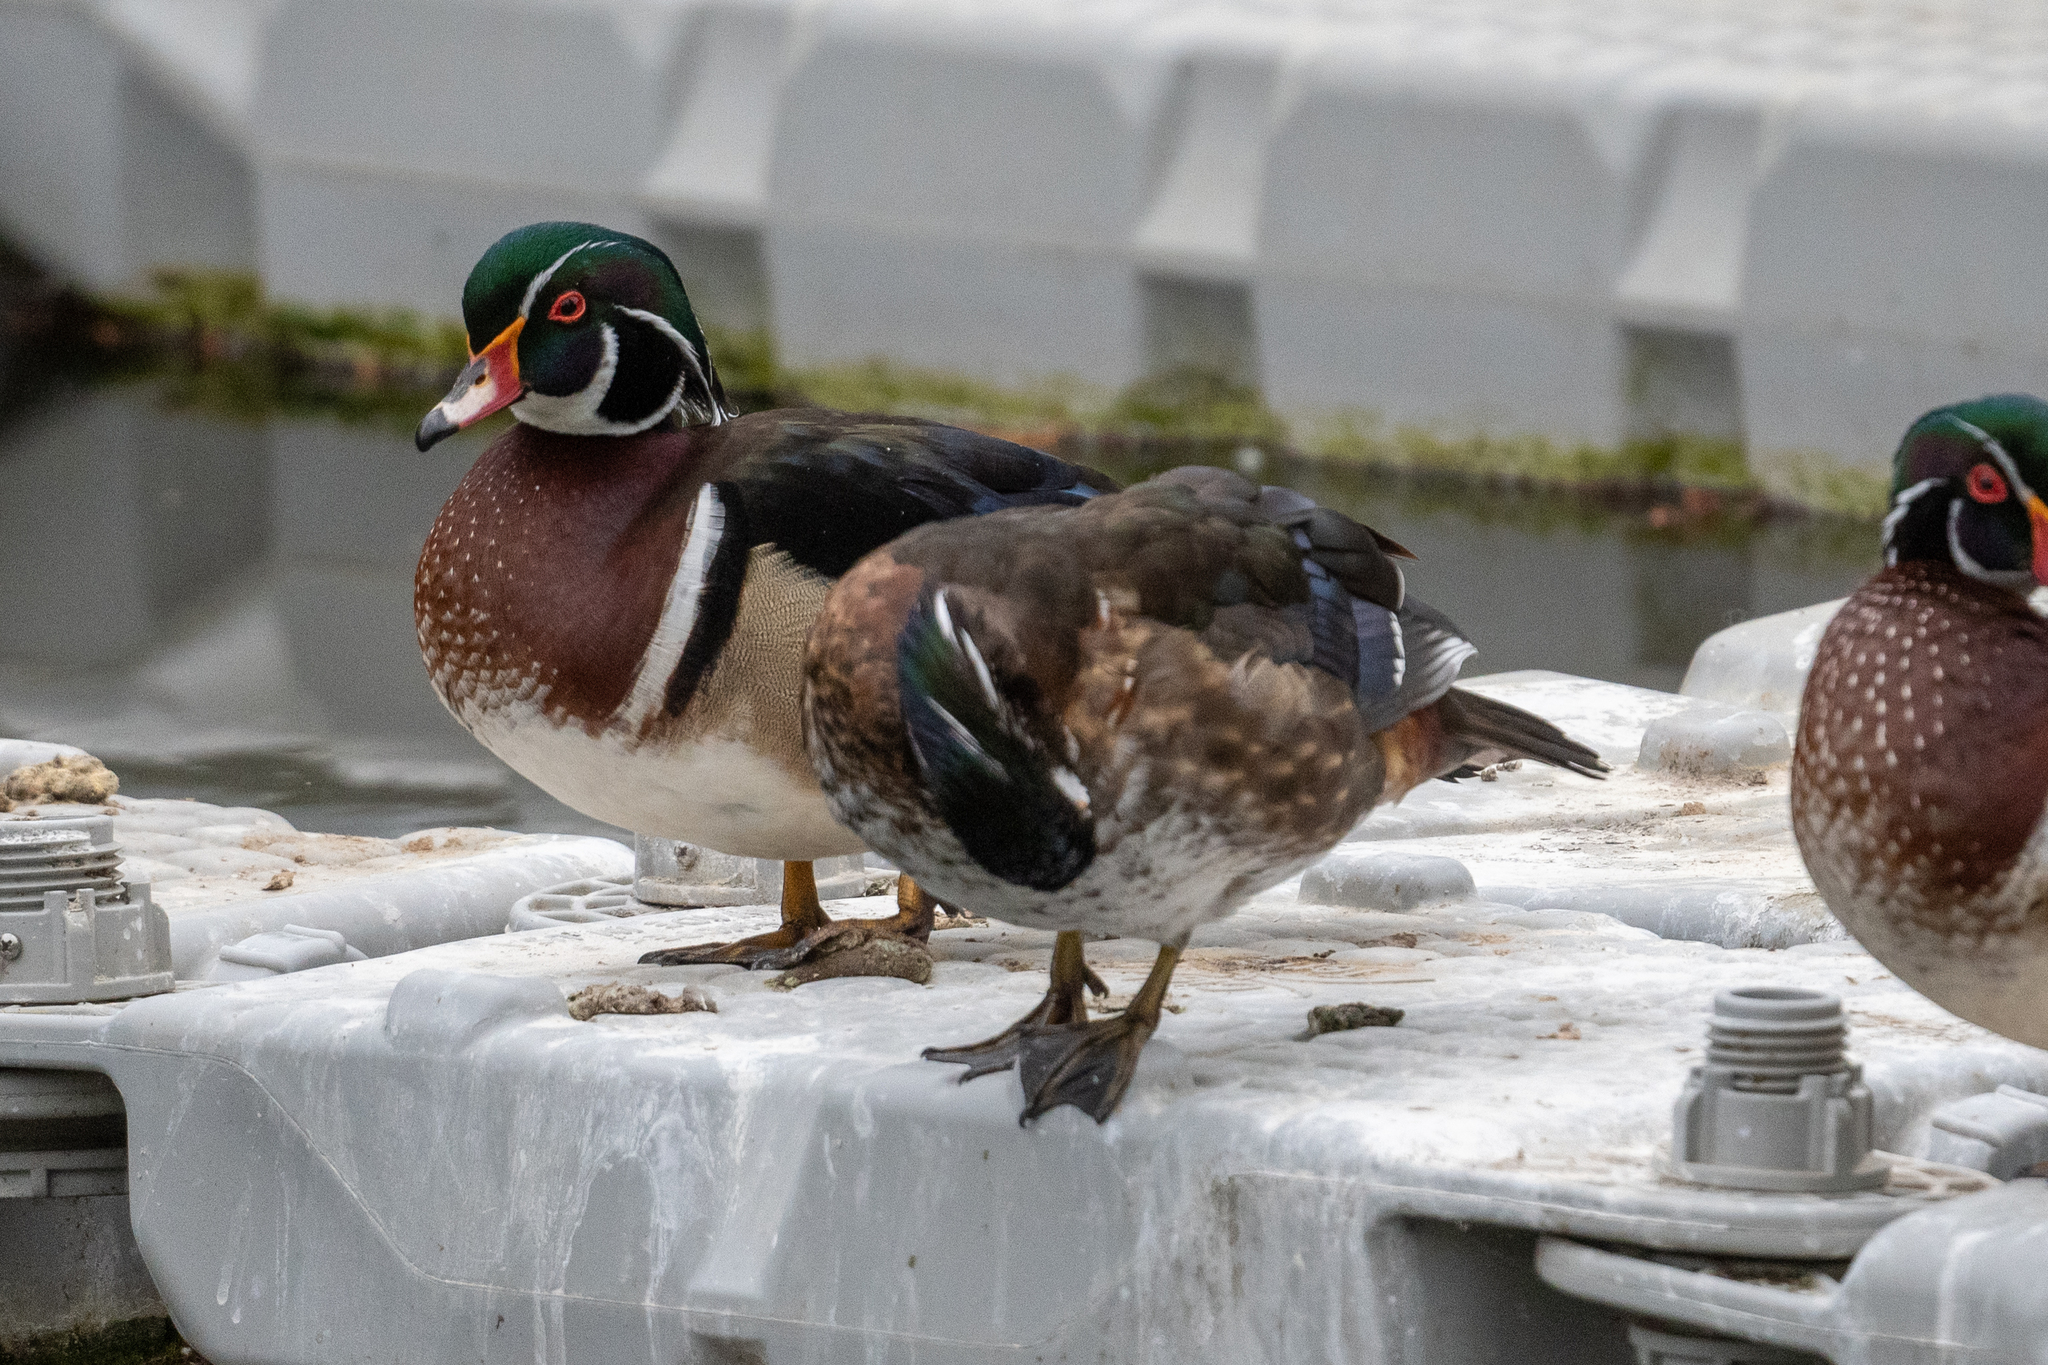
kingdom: Animalia
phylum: Chordata
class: Aves
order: Anseriformes
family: Anatidae
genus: Aix
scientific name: Aix sponsa
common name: Wood duck
